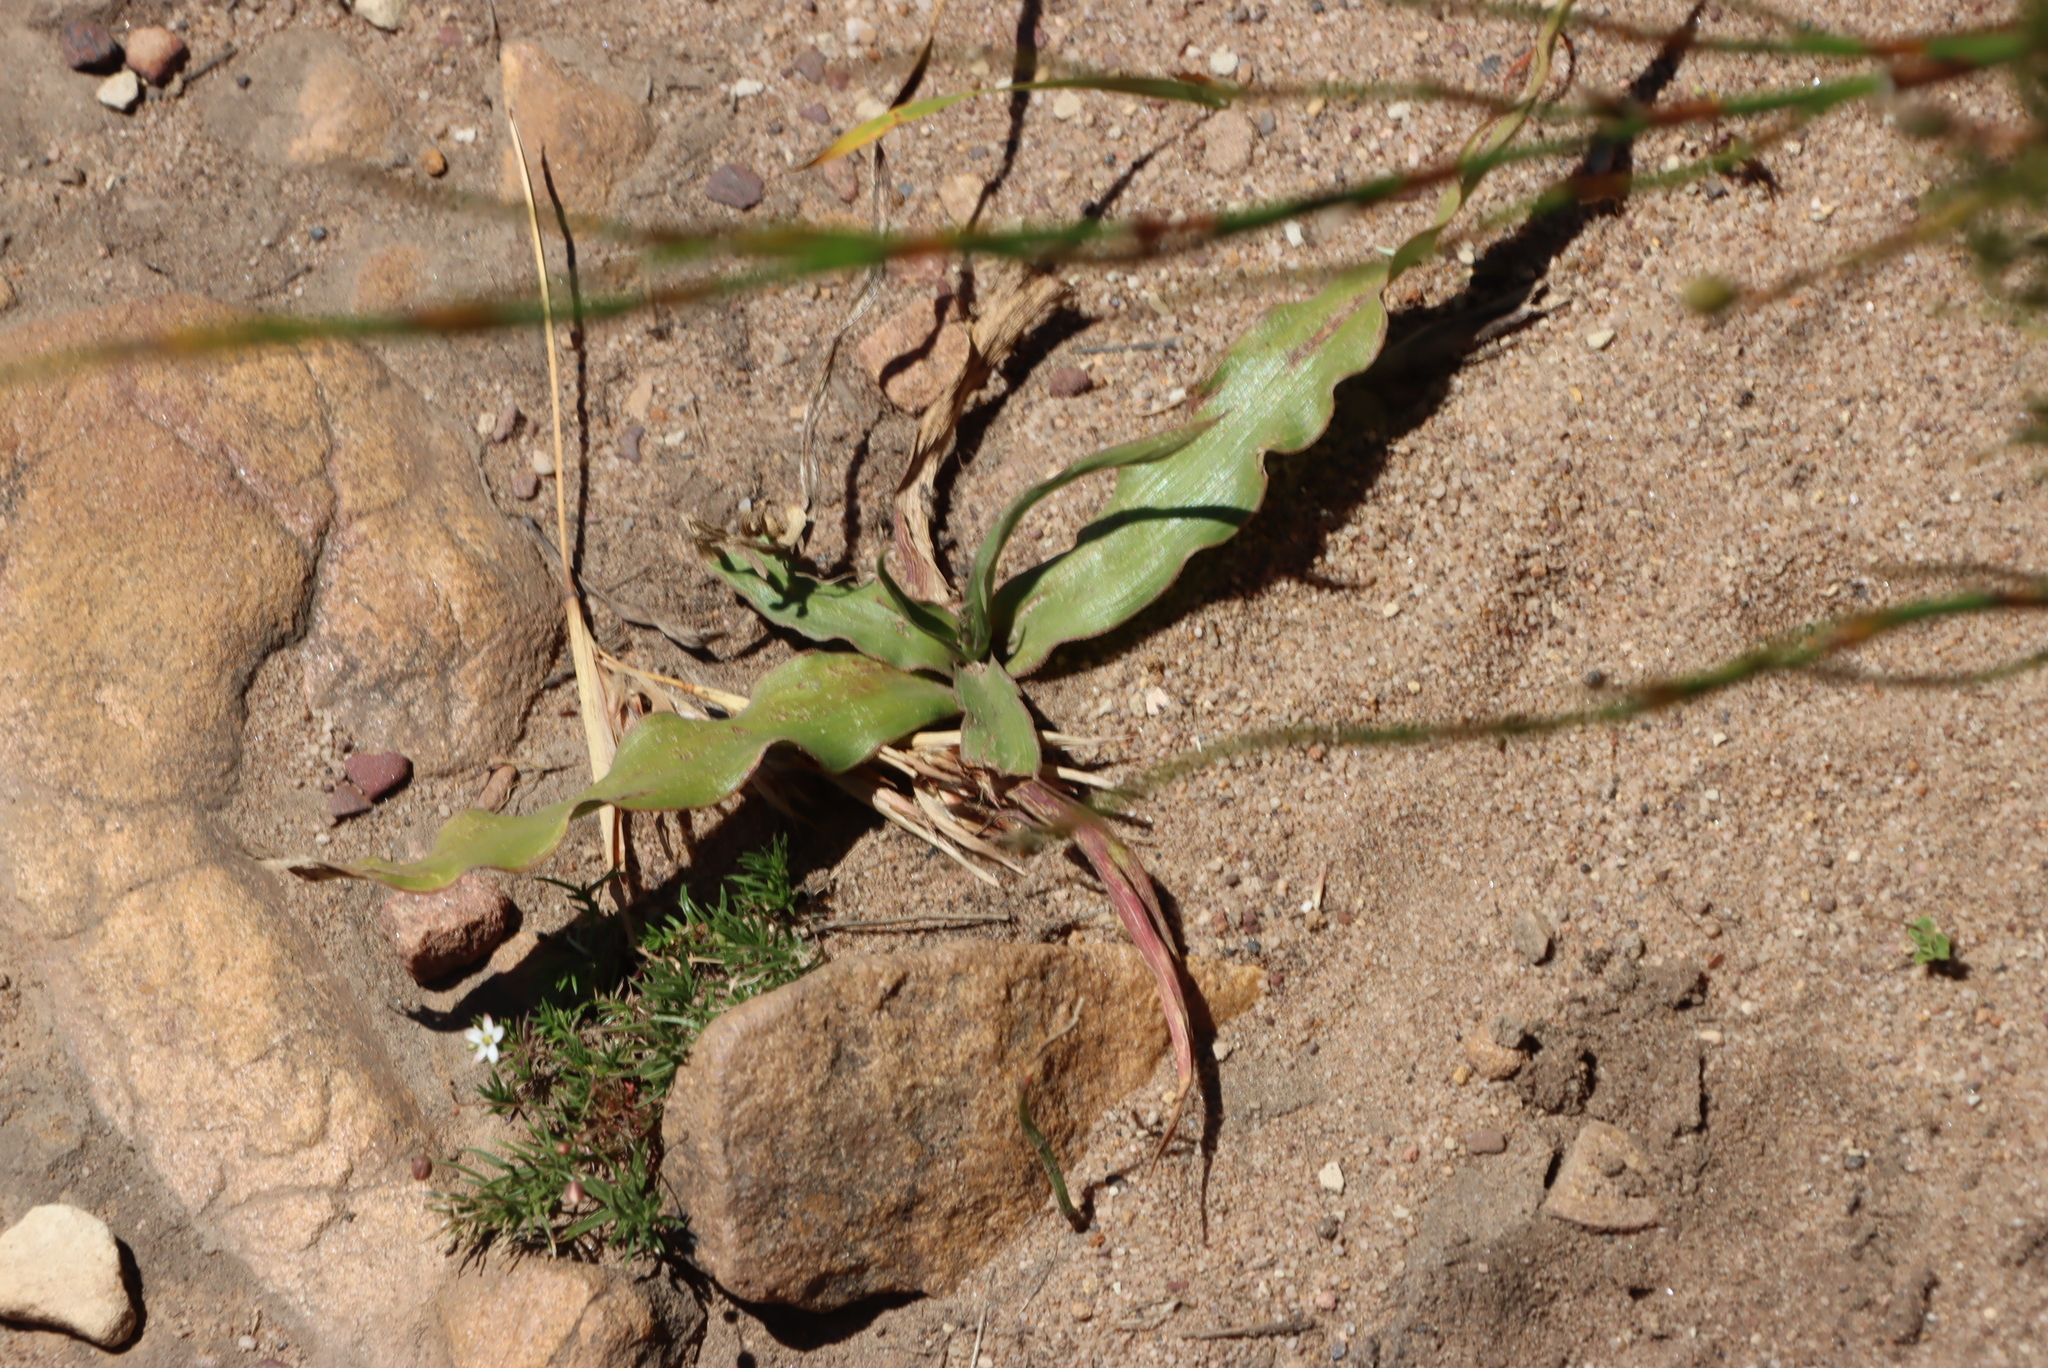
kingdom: Plantae
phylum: Tracheophyta
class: Liliopsida
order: Asparagales
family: Tecophilaeaceae
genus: Cyanella
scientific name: Cyanella hyacinthoides
